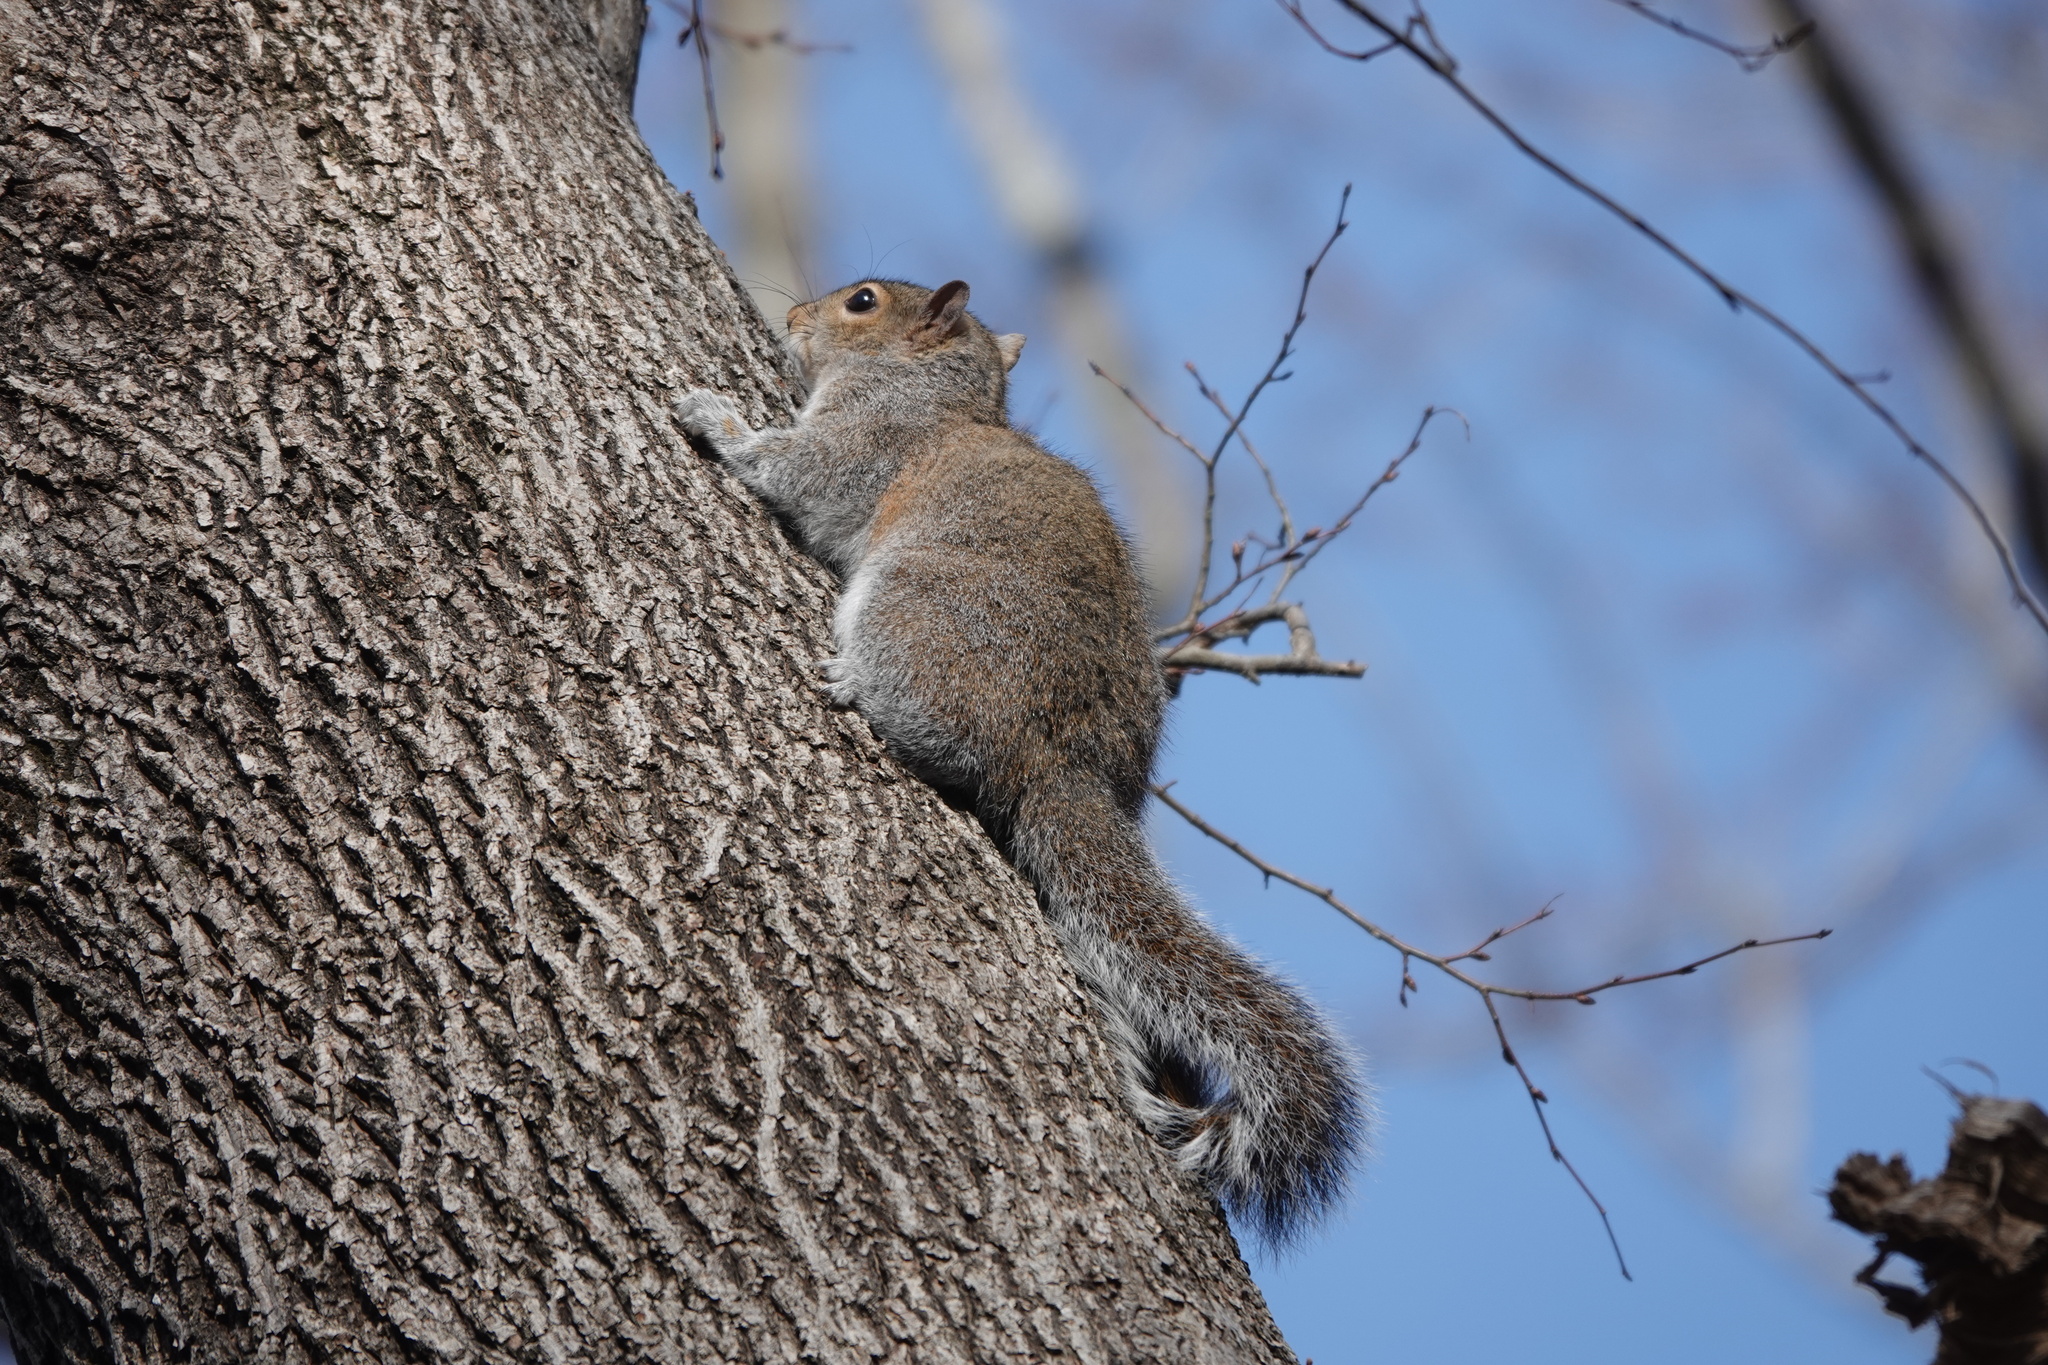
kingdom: Animalia
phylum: Chordata
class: Mammalia
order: Rodentia
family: Sciuridae
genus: Sciurus
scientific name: Sciurus carolinensis
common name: Eastern gray squirrel
